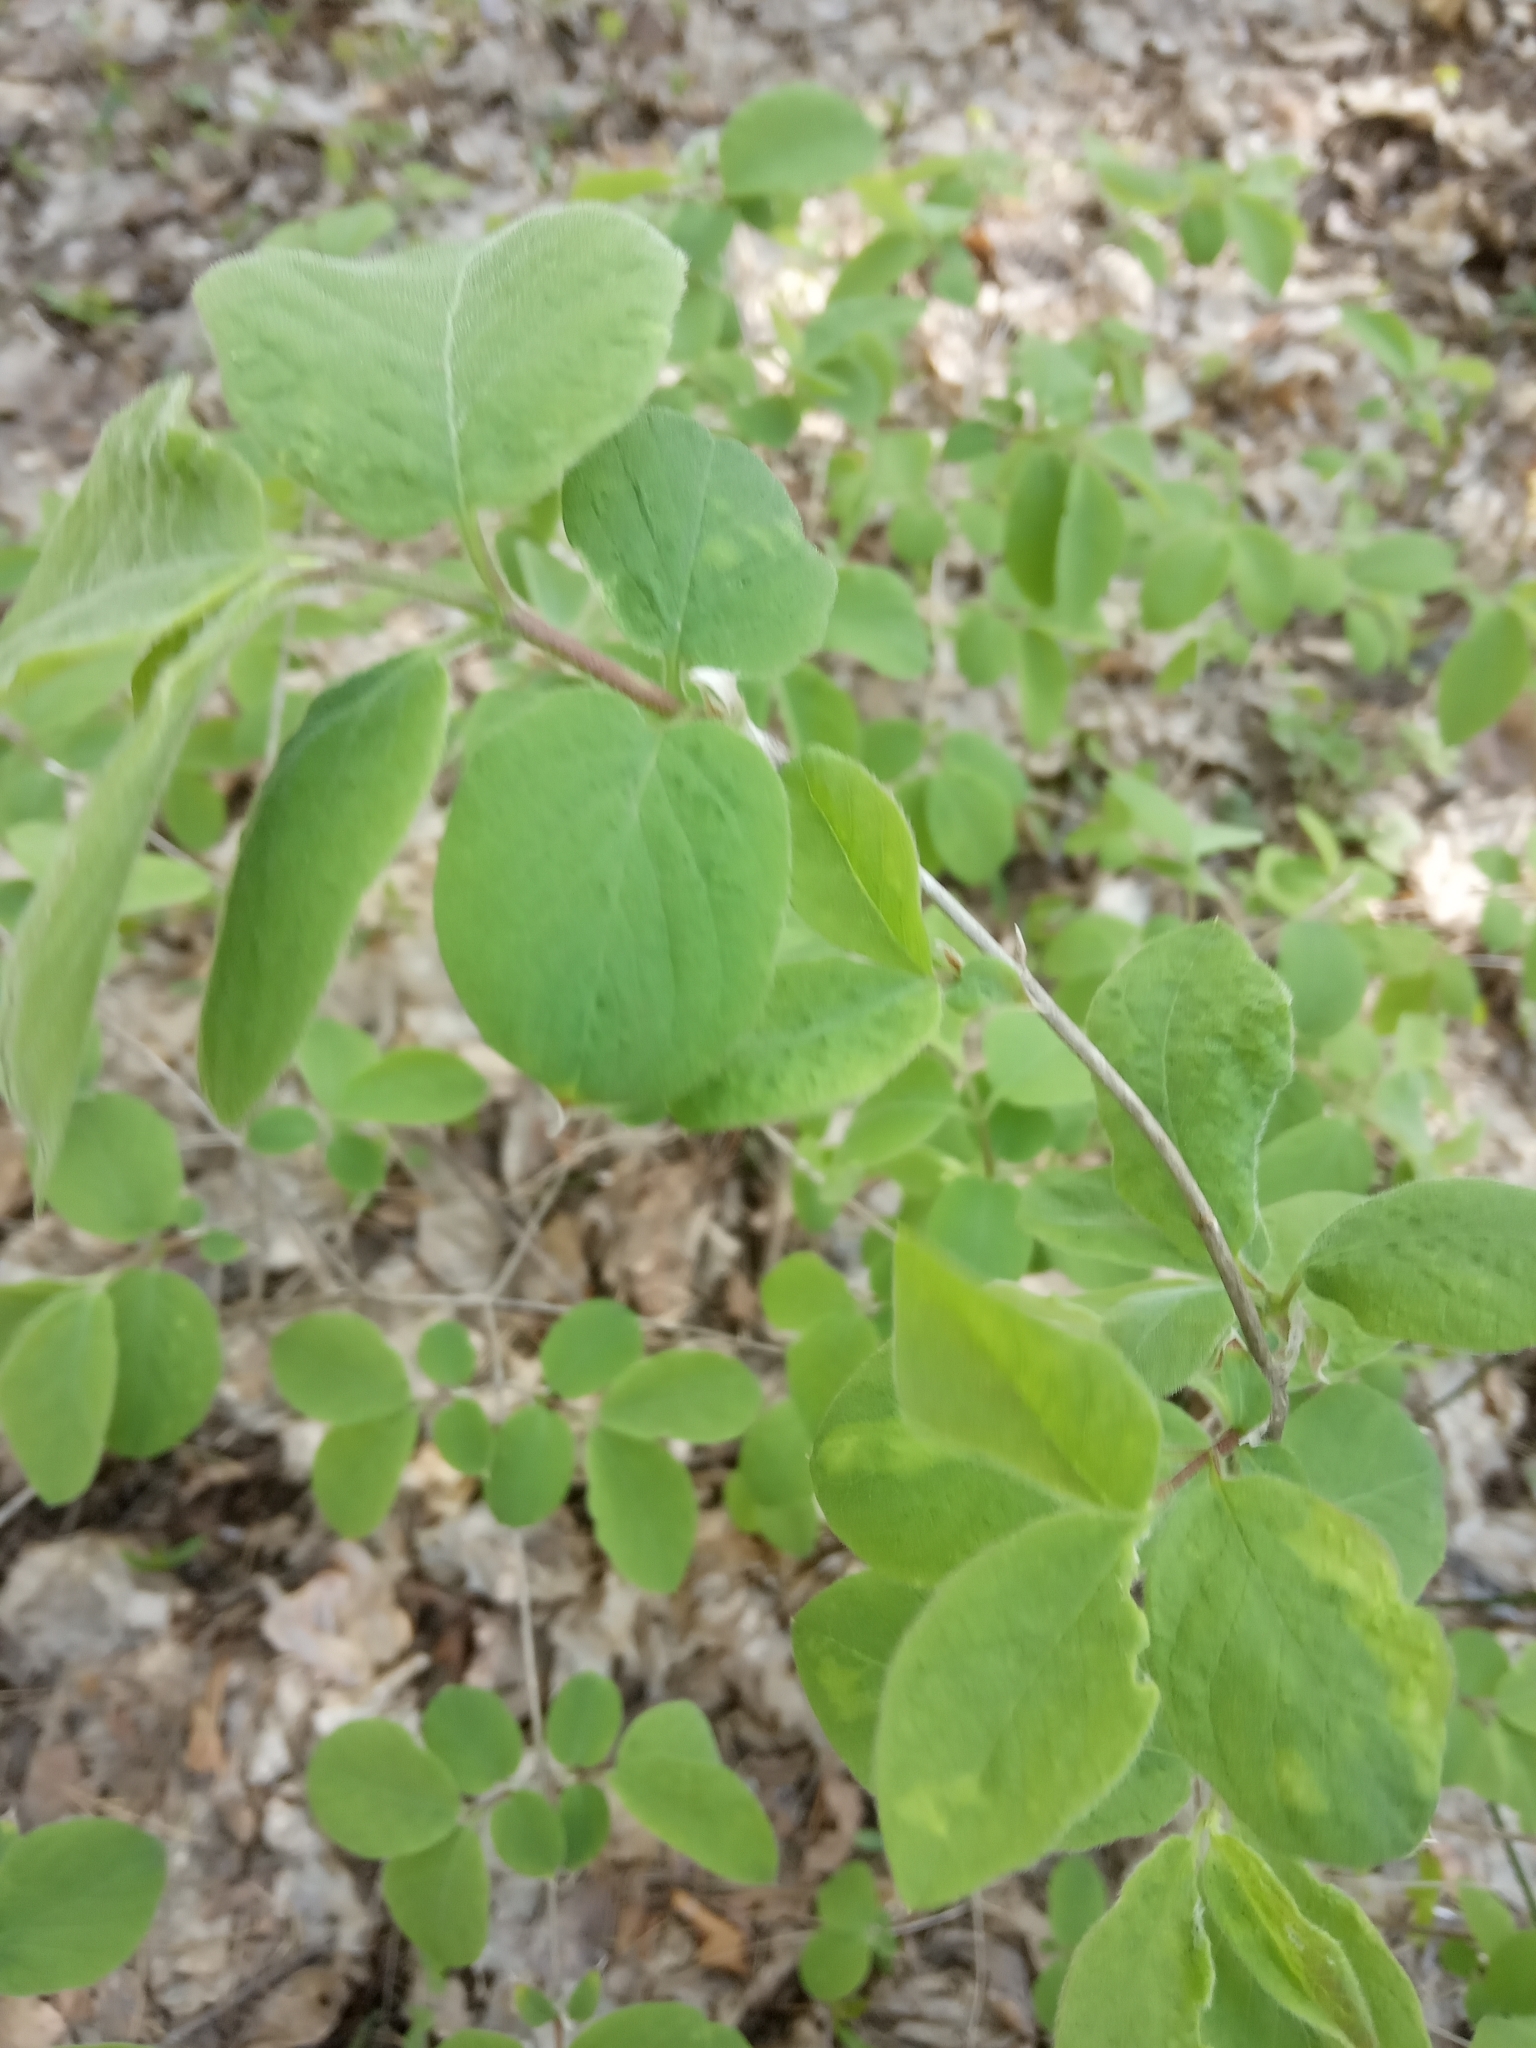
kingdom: Plantae
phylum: Tracheophyta
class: Magnoliopsida
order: Dipsacales
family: Caprifoliaceae
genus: Lonicera
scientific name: Lonicera xylosteum
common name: Fly honeysuckle
